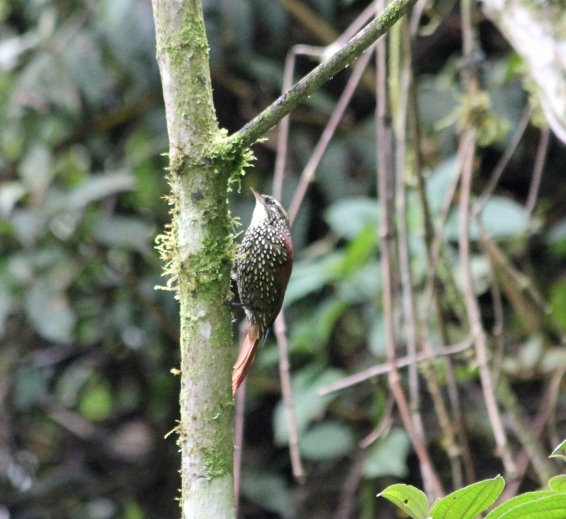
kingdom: Animalia
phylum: Chordata
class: Aves
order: Passeriformes
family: Furnariidae
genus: Margarornis
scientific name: Margarornis squamiger
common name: Pearled treerunner
